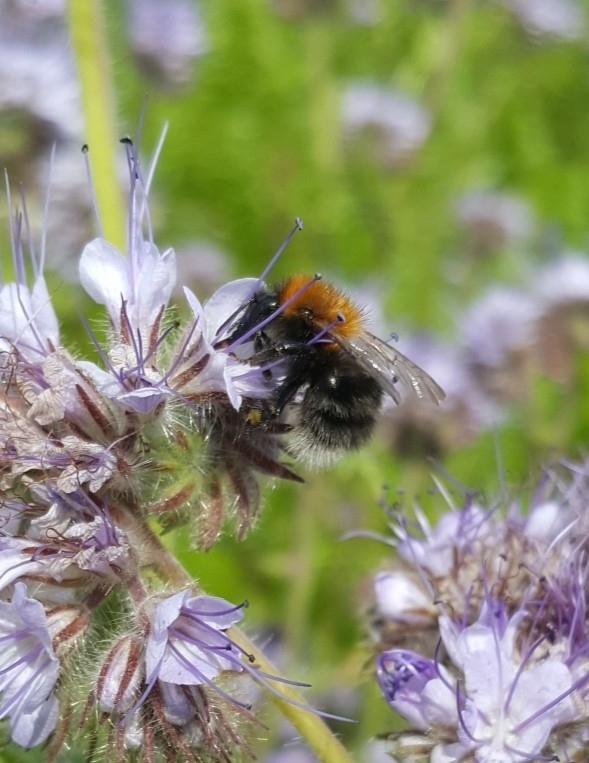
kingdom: Animalia
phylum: Arthropoda
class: Insecta
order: Hymenoptera
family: Apidae
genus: Bombus
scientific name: Bombus hypnorum
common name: New garden bumblebee
